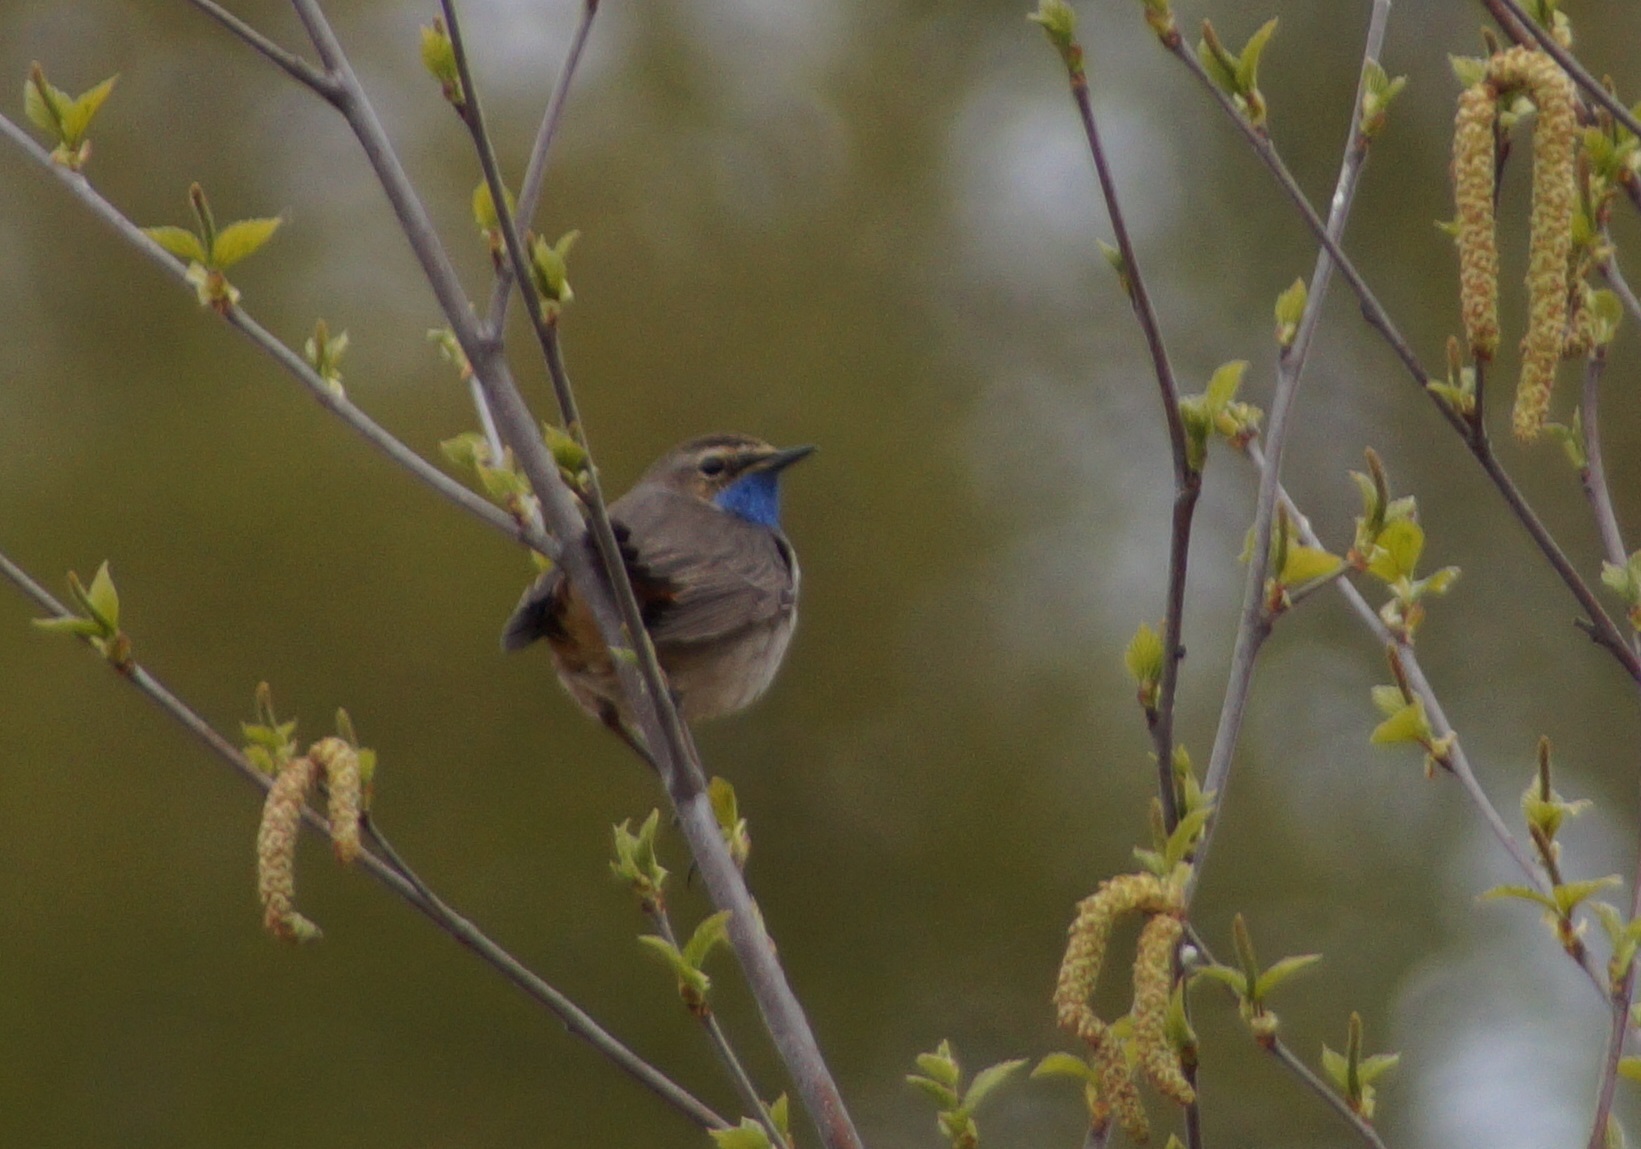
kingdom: Animalia
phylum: Chordata
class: Aves
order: Passeriformes
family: Muscicapidae
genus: Luscinia
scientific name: Luscinia svecica
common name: Bluethroat
